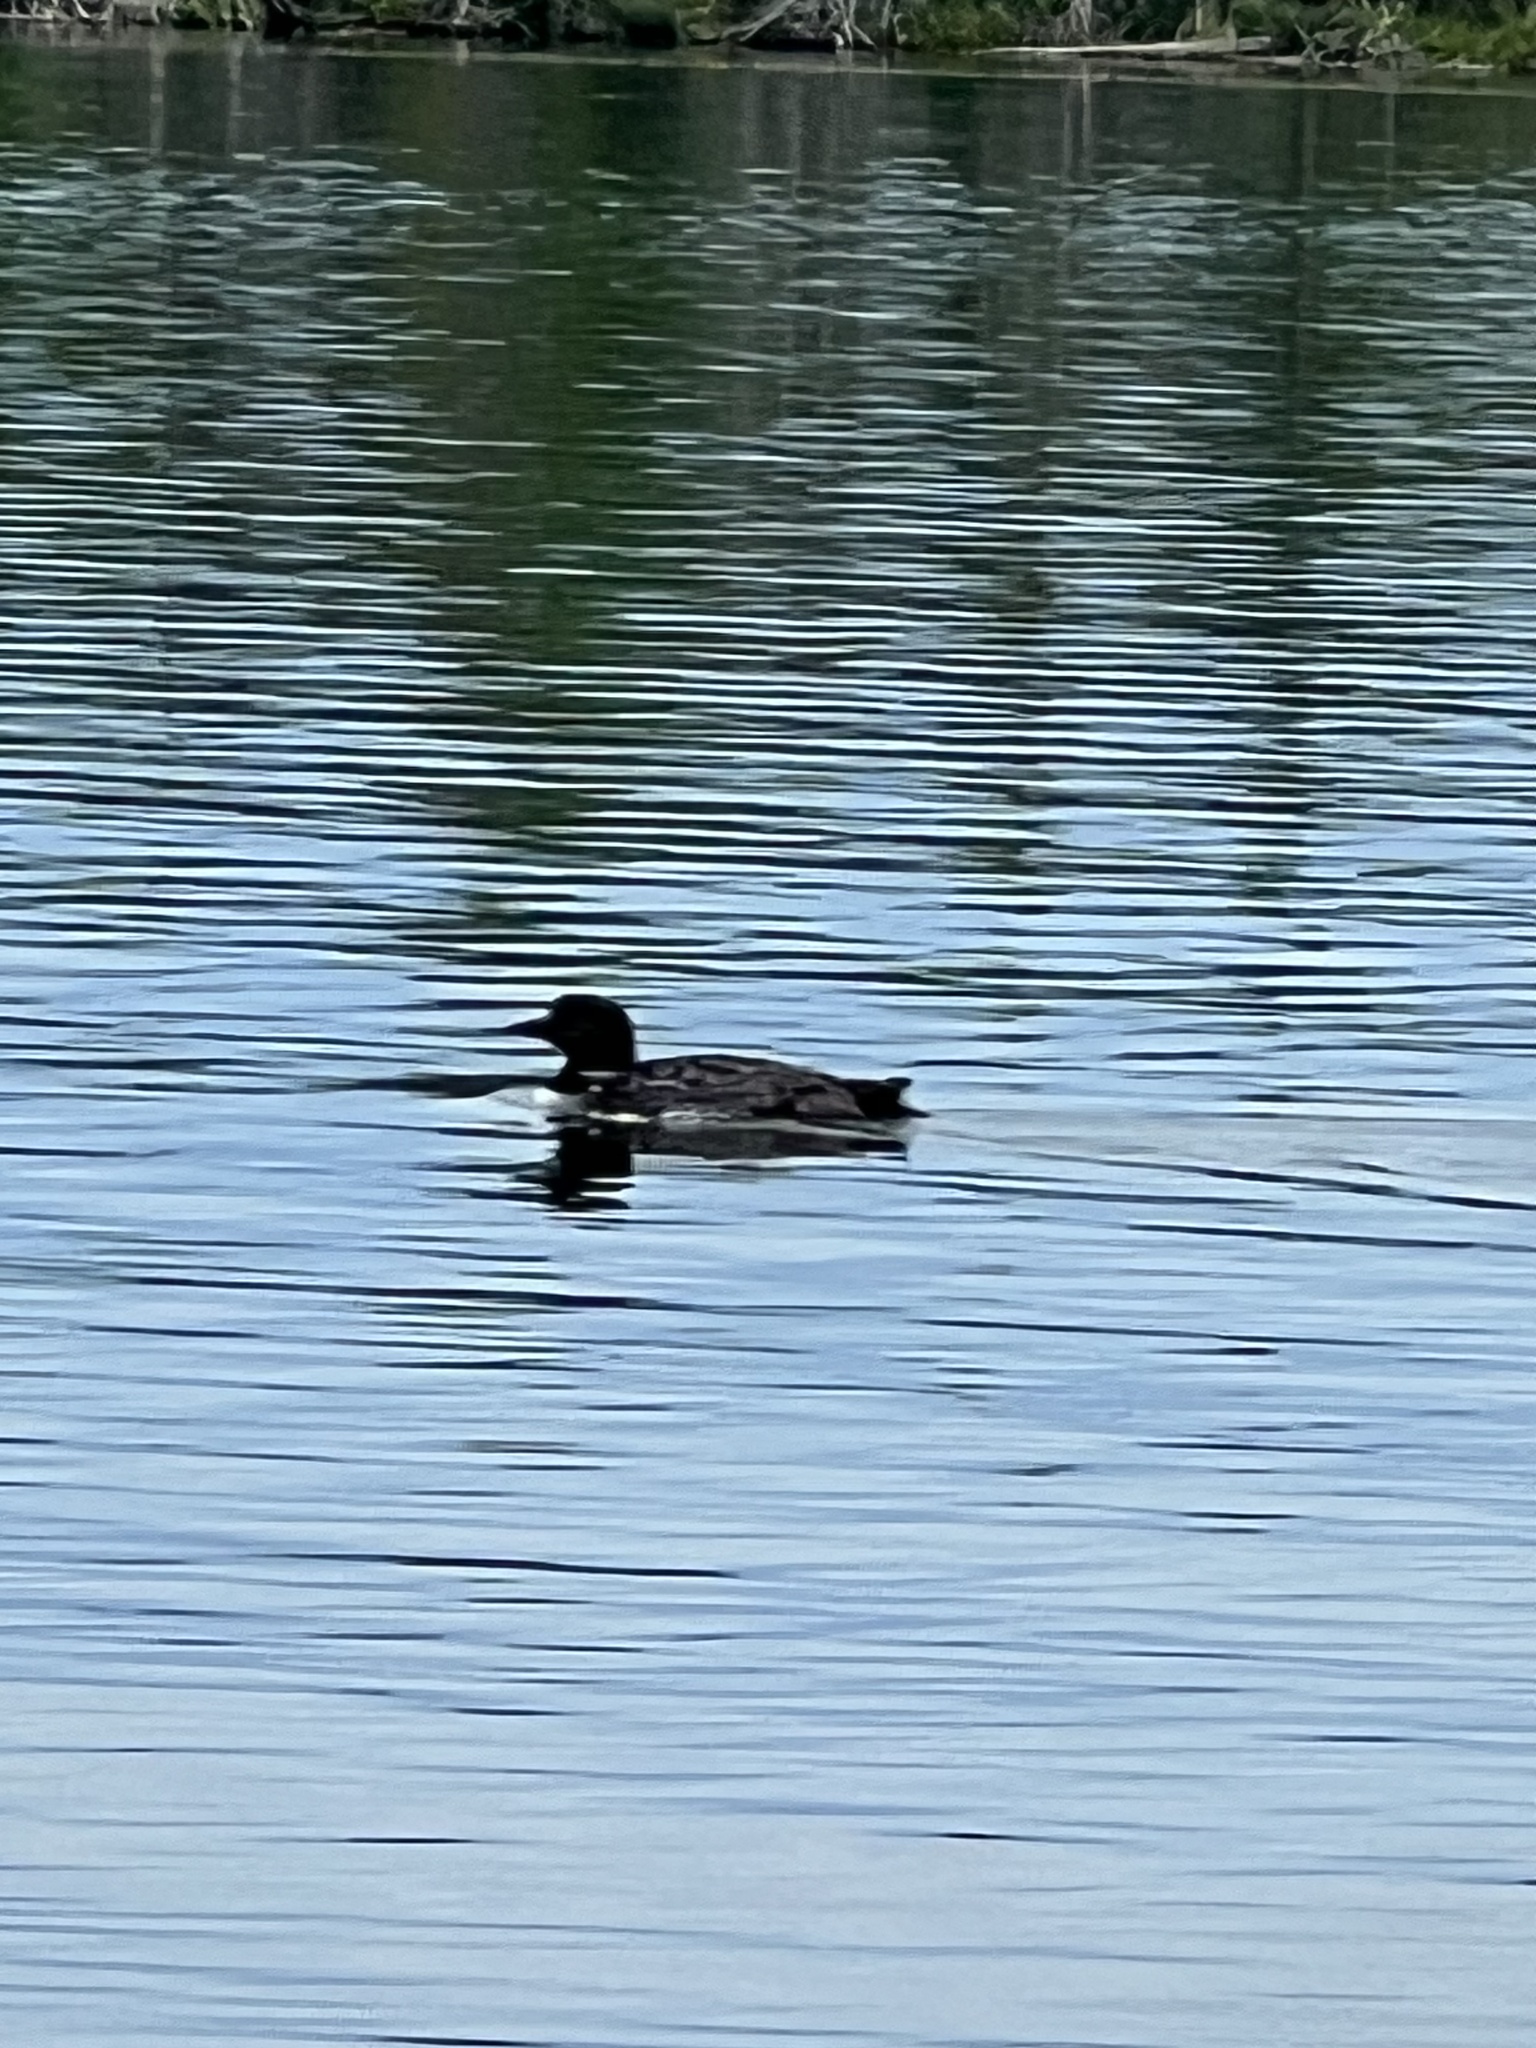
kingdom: Animalia
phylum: Chordata
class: Aves
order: Gaviiformes
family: Gaviidae
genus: Gavia
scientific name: Gavia immer
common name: Common loon
